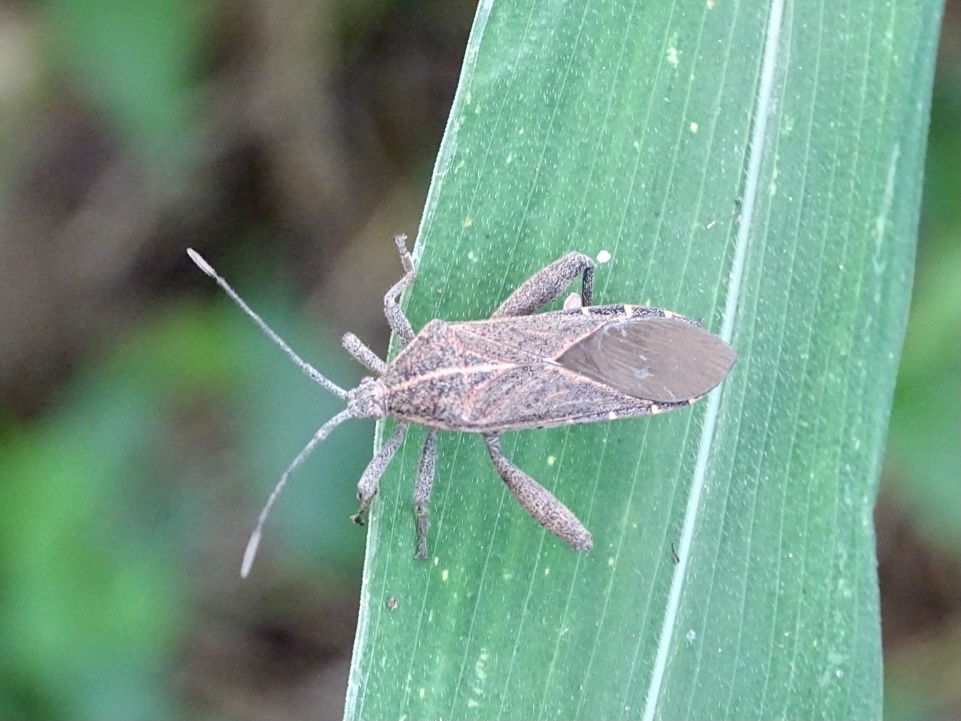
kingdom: Animalia
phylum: Arthropoda
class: Insecta
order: Hemiptera
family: Coreidae
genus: Physomerus
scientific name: Physomerus grossipes
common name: Squash bug
